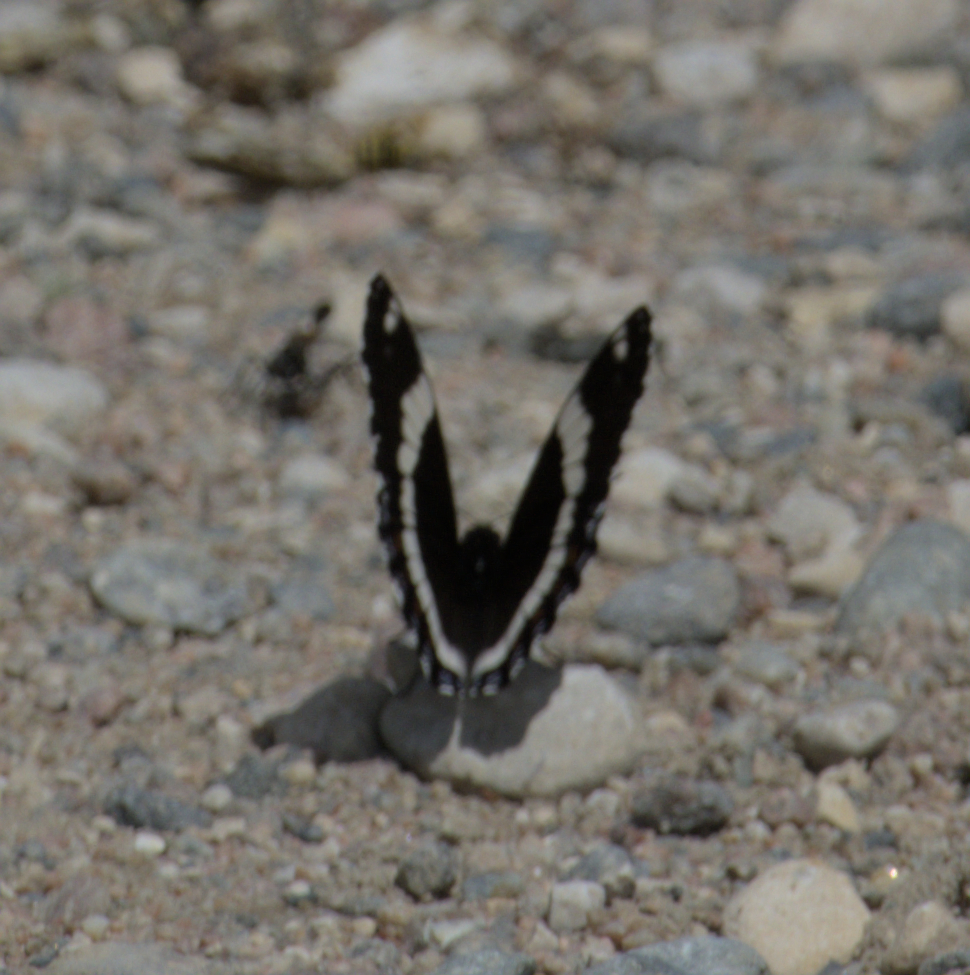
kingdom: Animalia
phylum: Arthropoda
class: Insecta
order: Lepidoptera
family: Nymphalidae
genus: Limenitis
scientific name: Limenitis arthemis
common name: Red-spotted admiral
